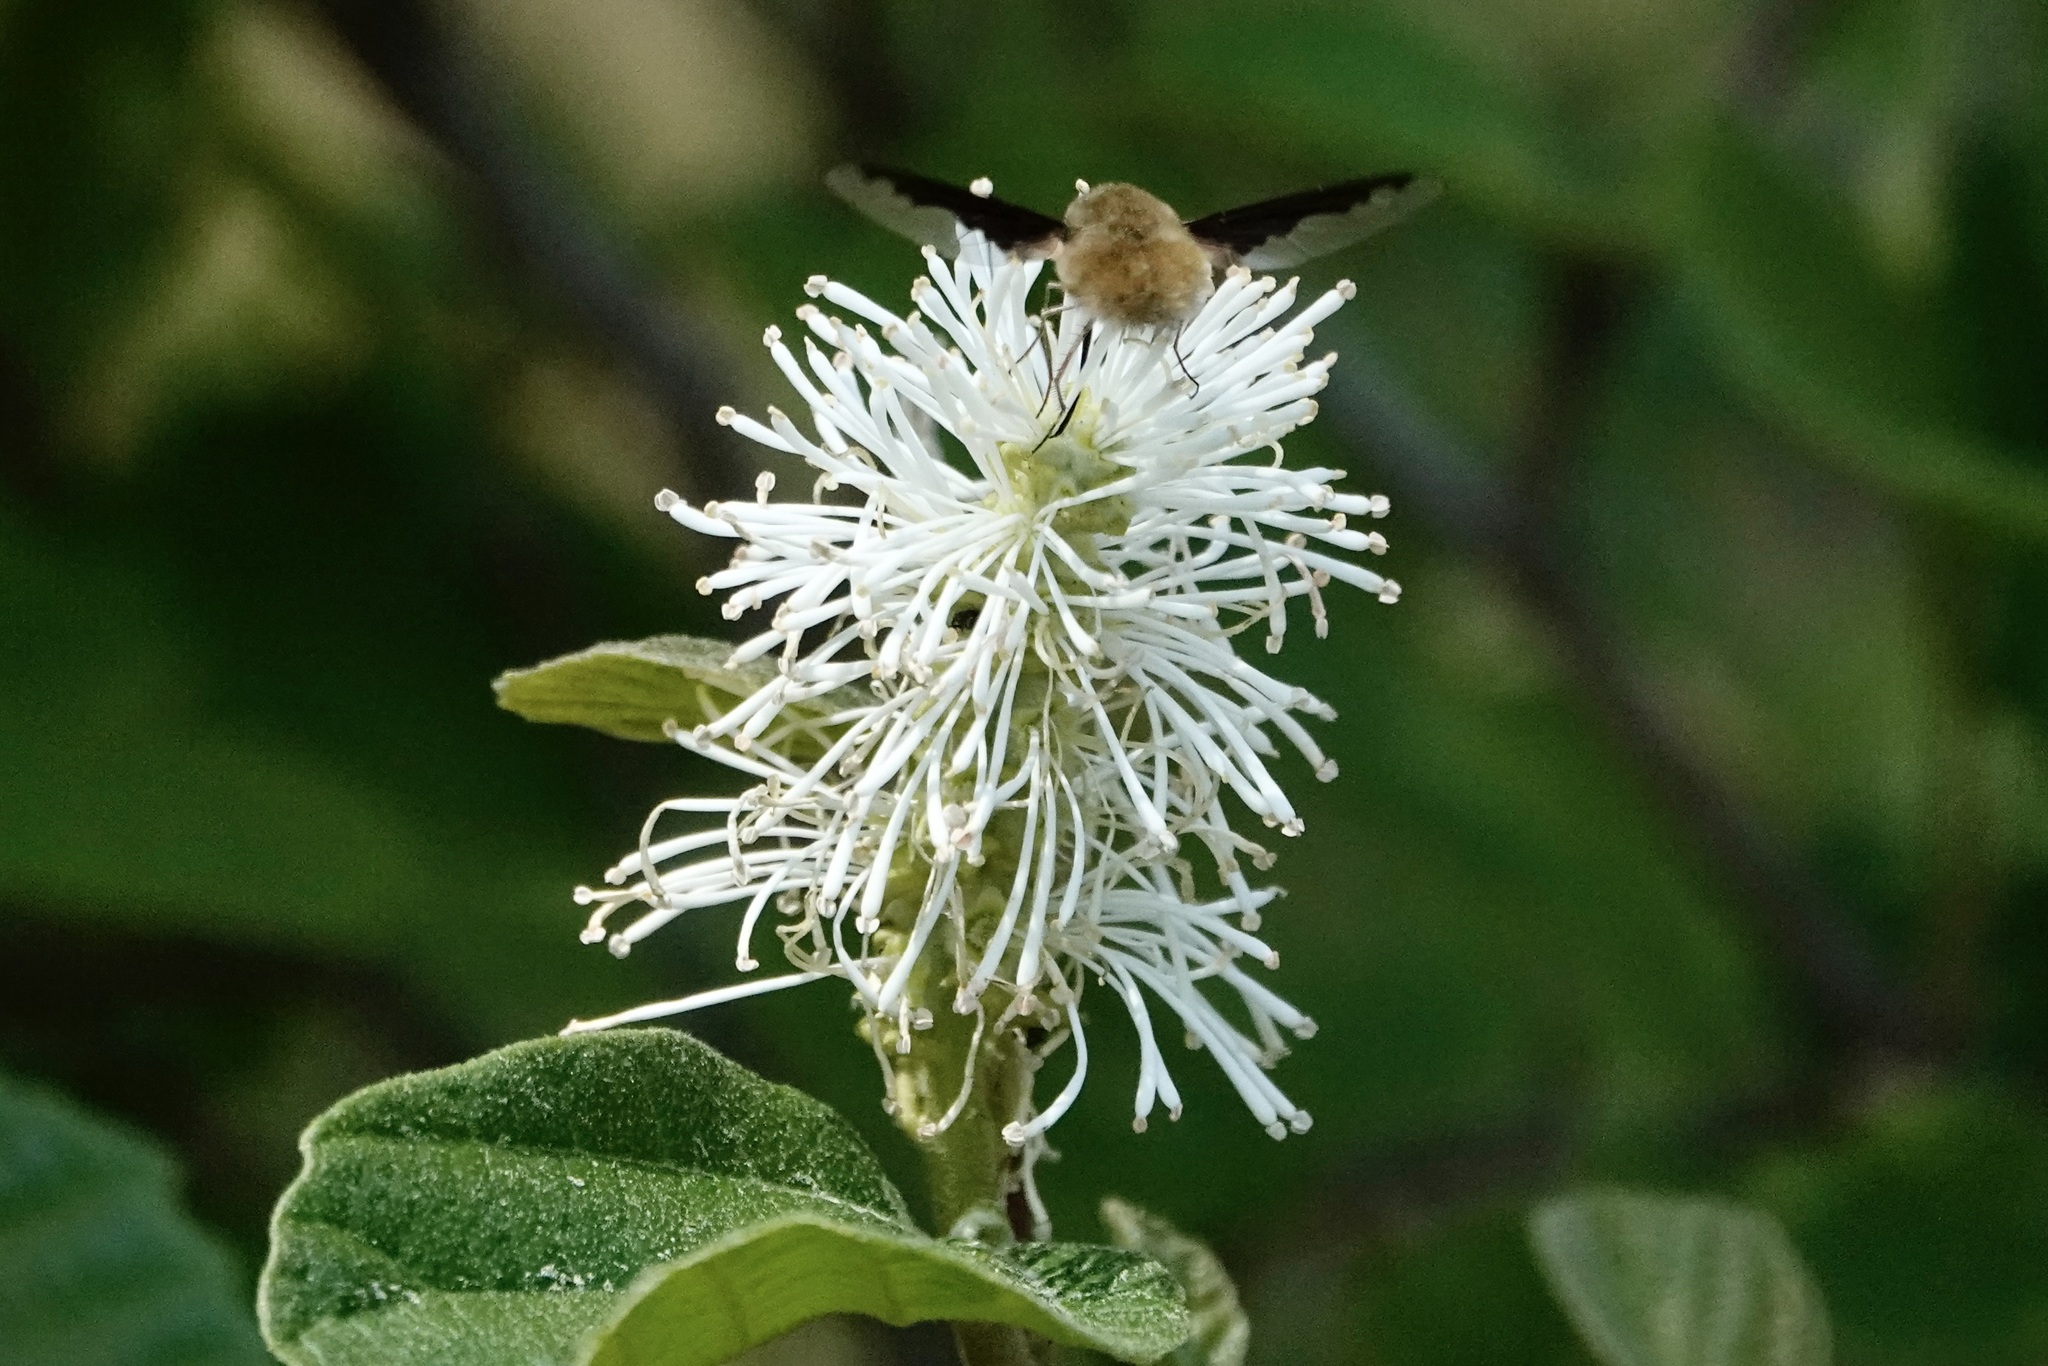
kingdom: Animalia
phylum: Arthropoda
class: Insecta
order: Diptera
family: Bombyliidae
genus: Bombylius
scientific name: Bombylius major
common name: Bee fly
